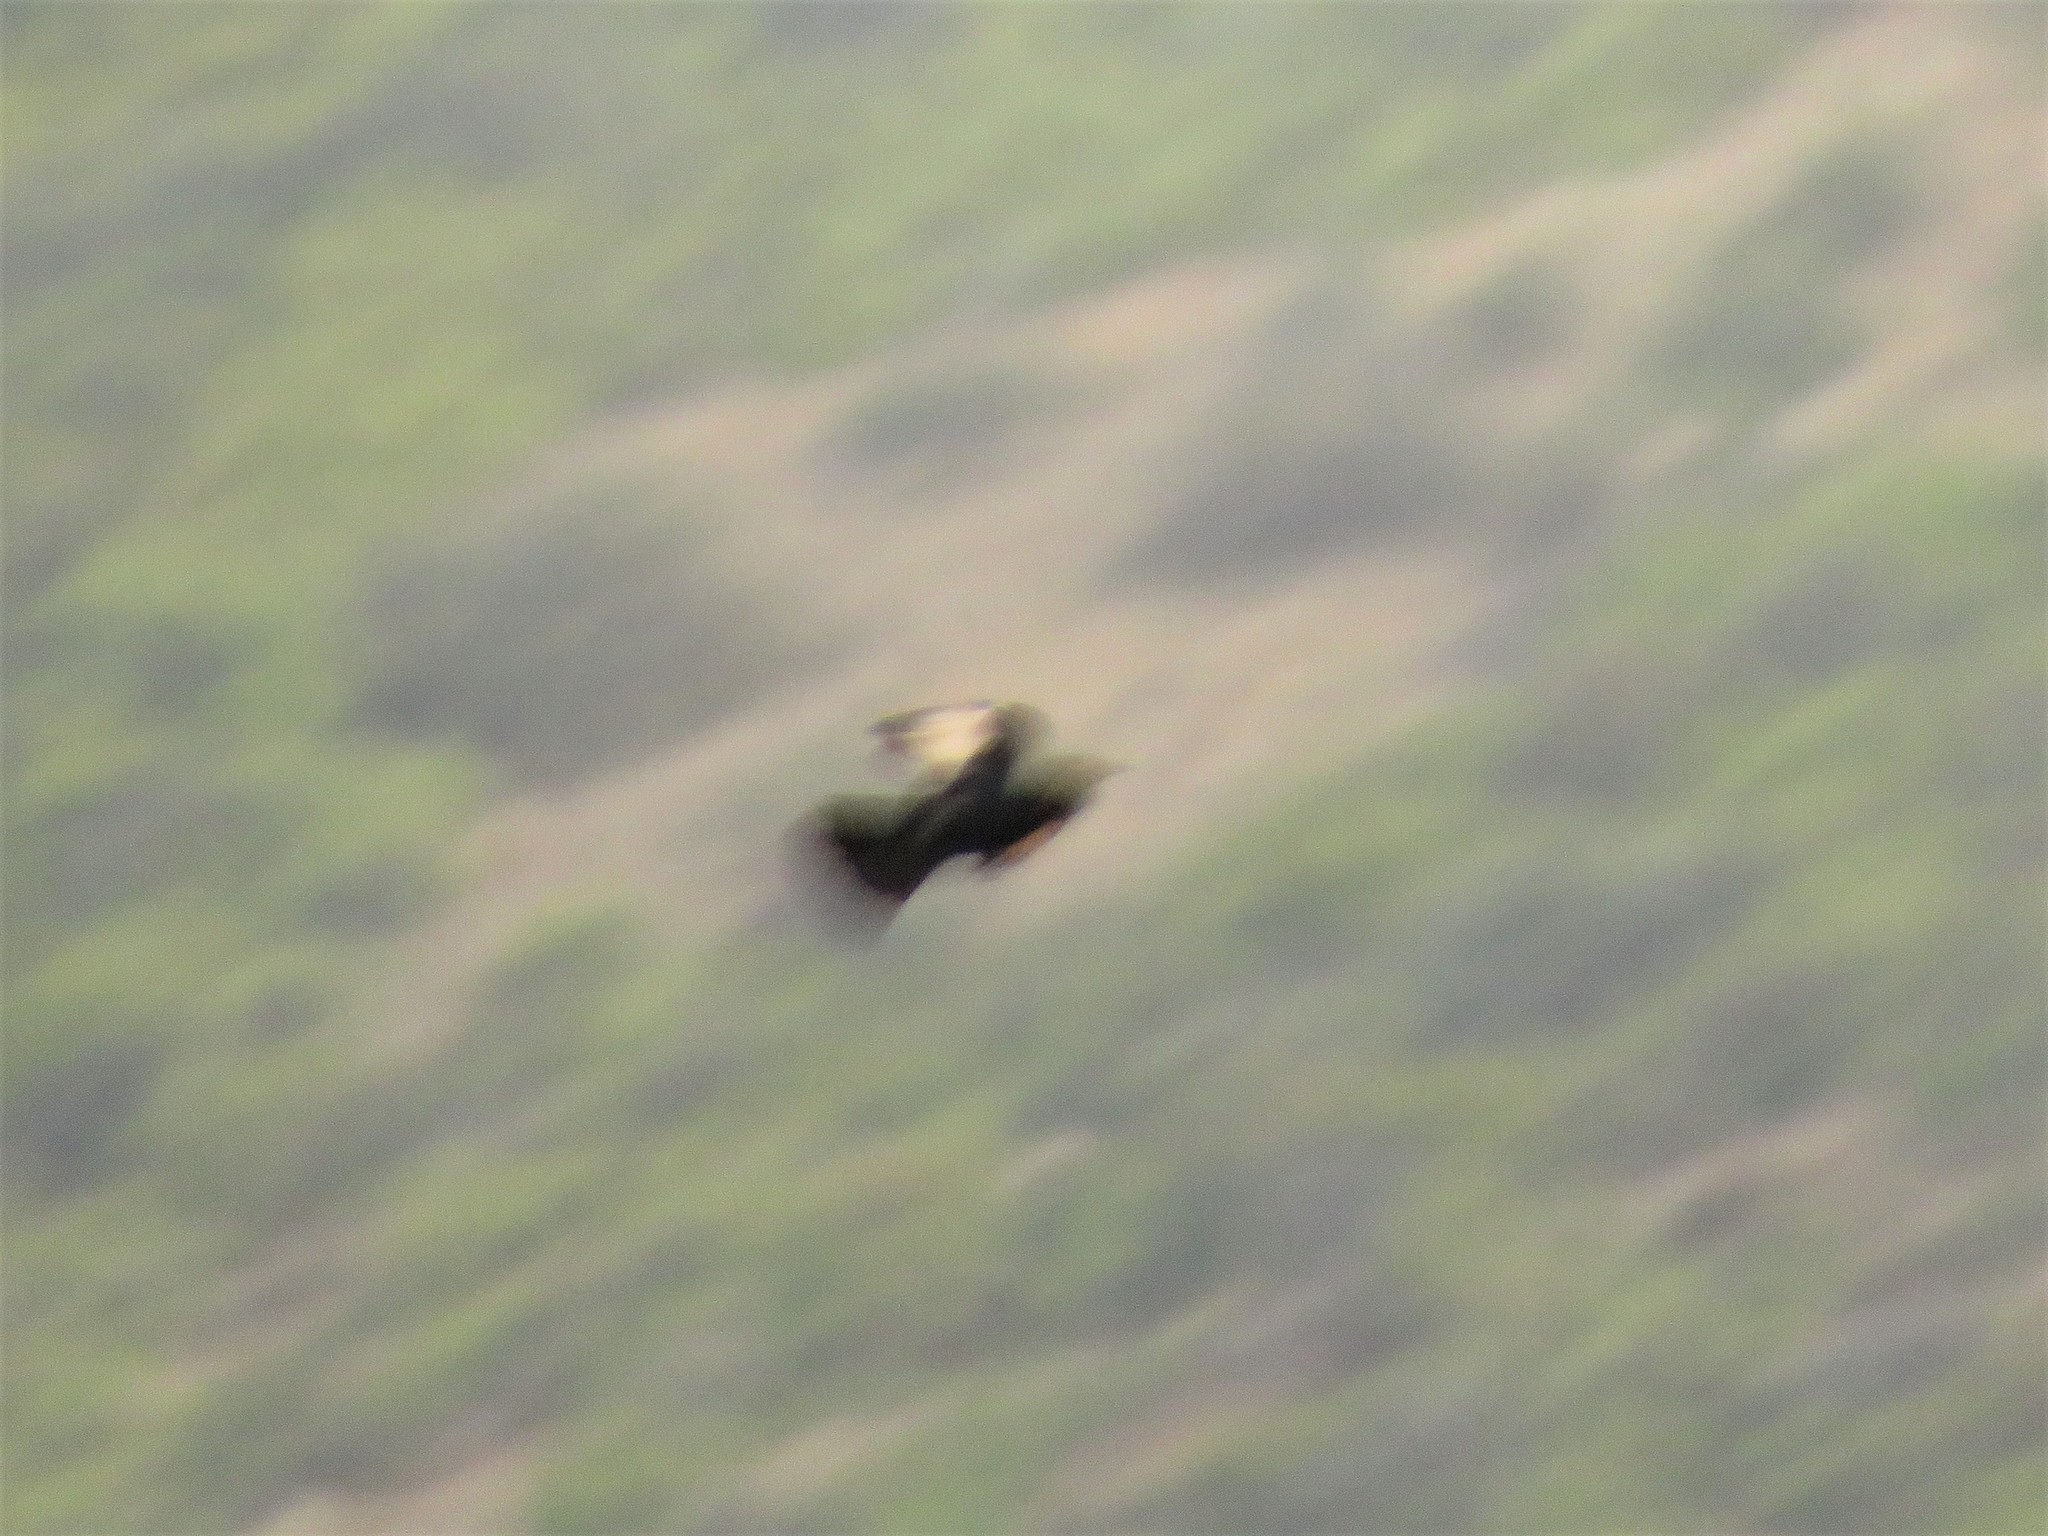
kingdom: Animalia
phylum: Chordata
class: Aves
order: Passeriformes
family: Sturnidae
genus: Onychognathus
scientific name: Onychognathus nabouroup
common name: Pale-winged starling
